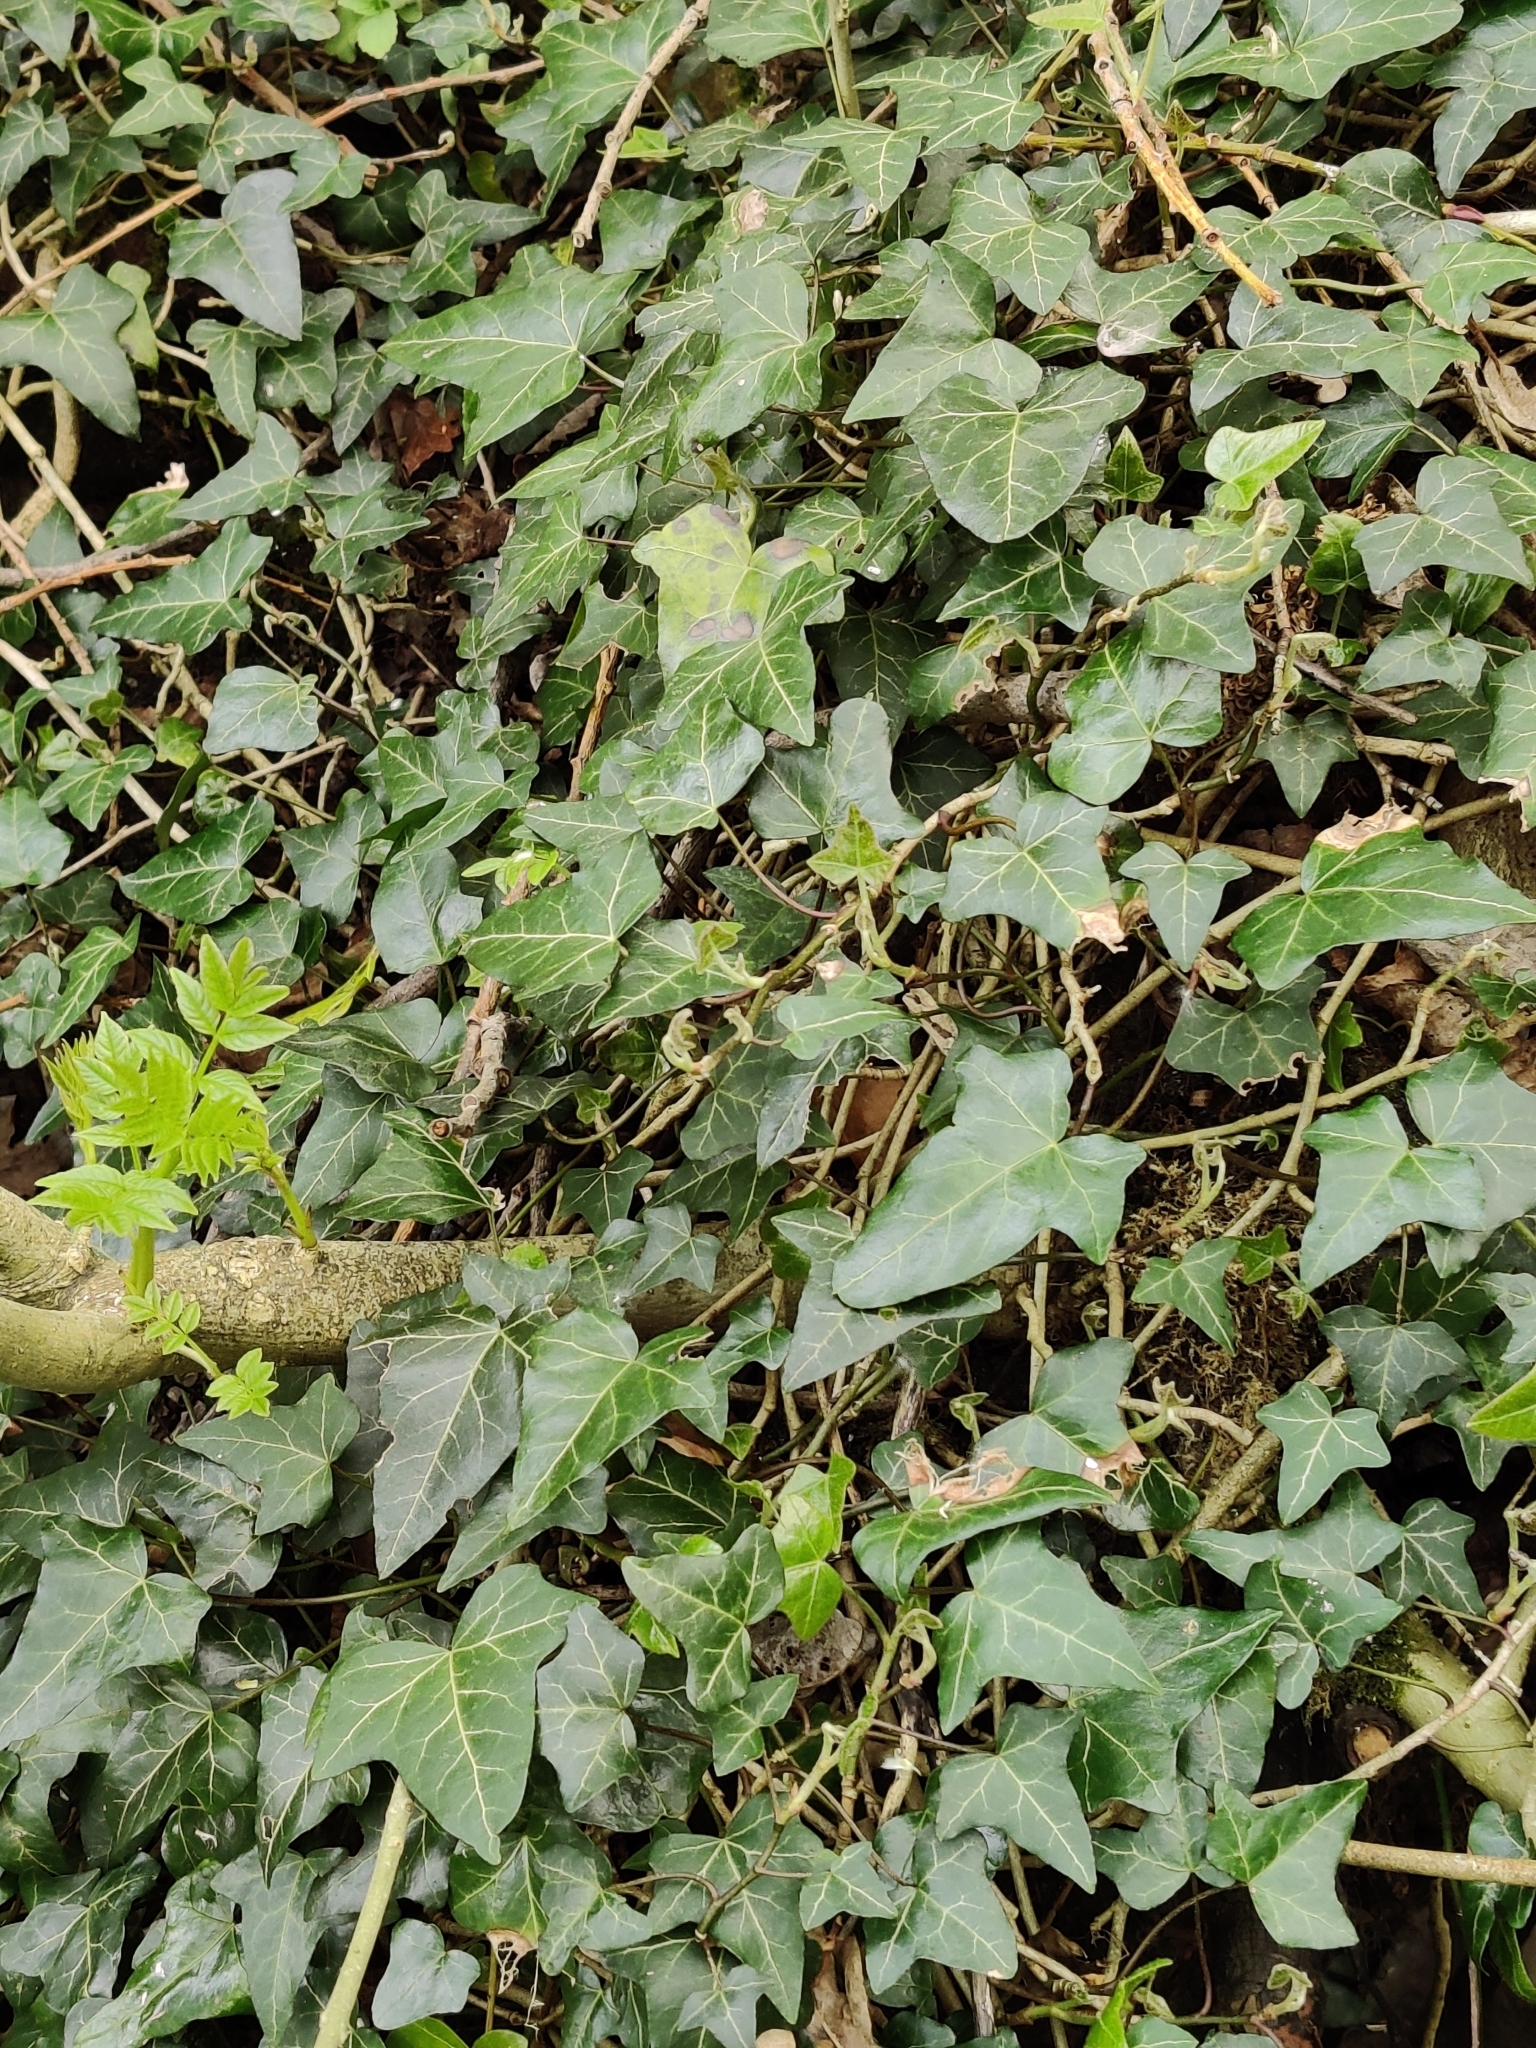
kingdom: Plantae
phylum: Tracheophyta
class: Magnoliopsida
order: Apiales
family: Araliaceae
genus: Hedera
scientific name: Hedera helix
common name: Ivy
